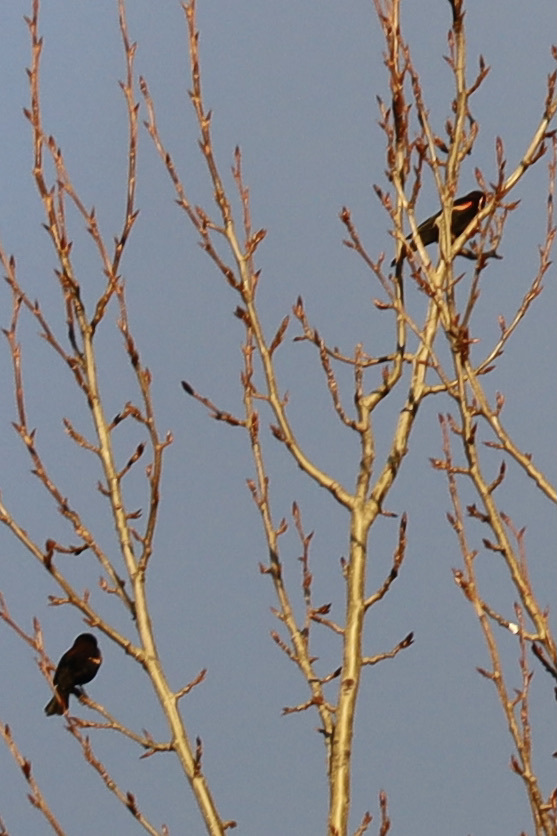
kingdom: Animalia
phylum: Chordata
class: Aves
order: Passeriformes
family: Icteridae
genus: Agelaius
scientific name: Agelaius phoeniceus
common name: Red-winged blackbird
